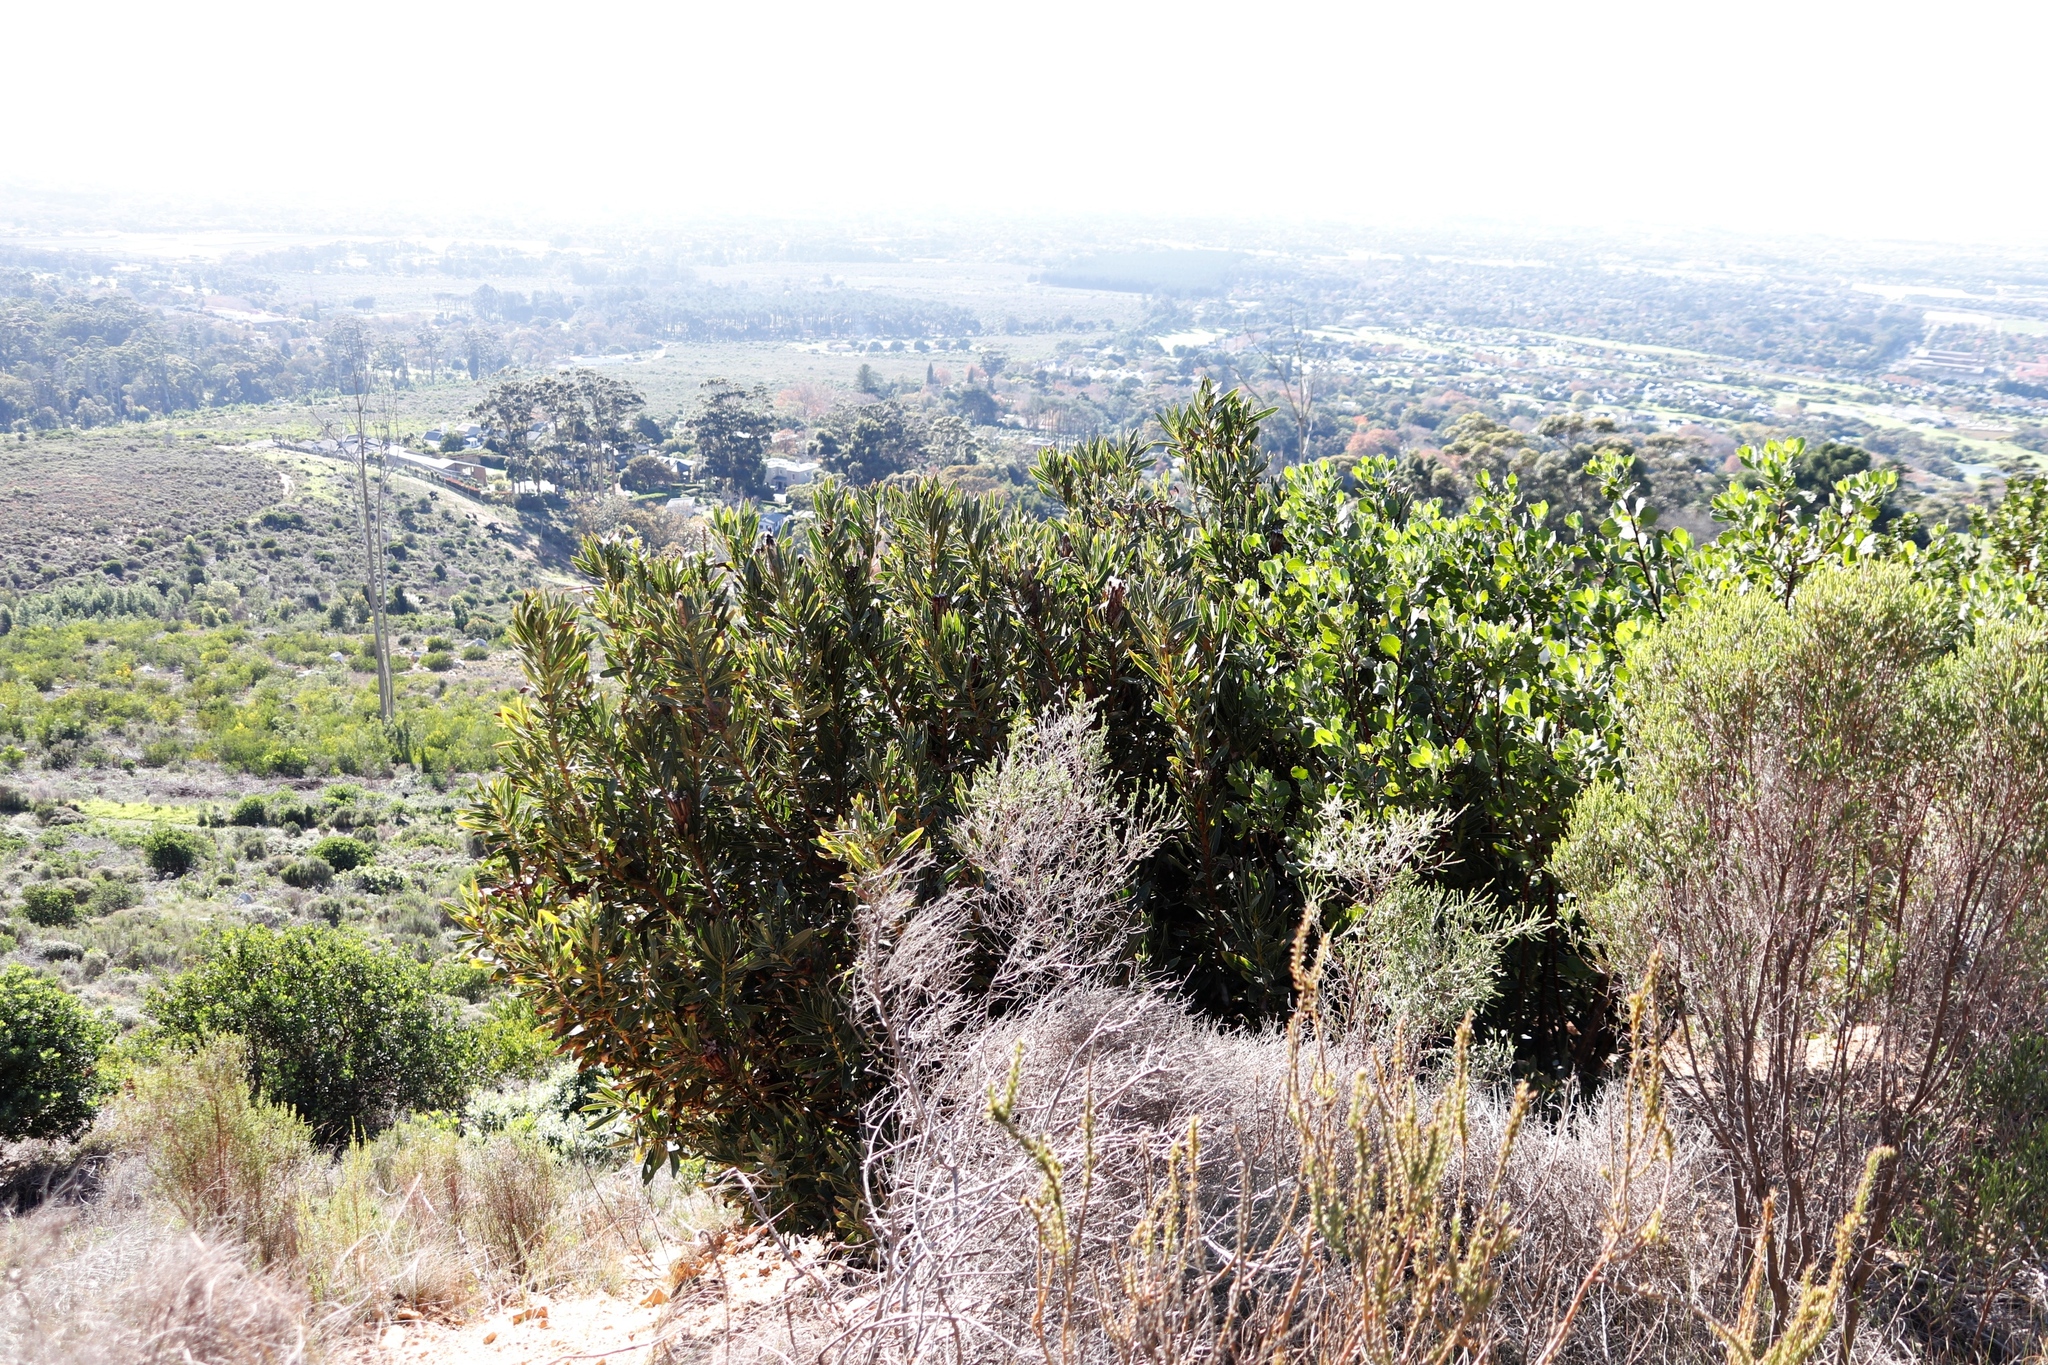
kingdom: Plantae
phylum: Tracheophyta
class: Magnoliopsida
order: Proteales
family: Proteaceae
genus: Protea
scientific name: Protea lepidocarpodendron
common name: Black-bearded protea
